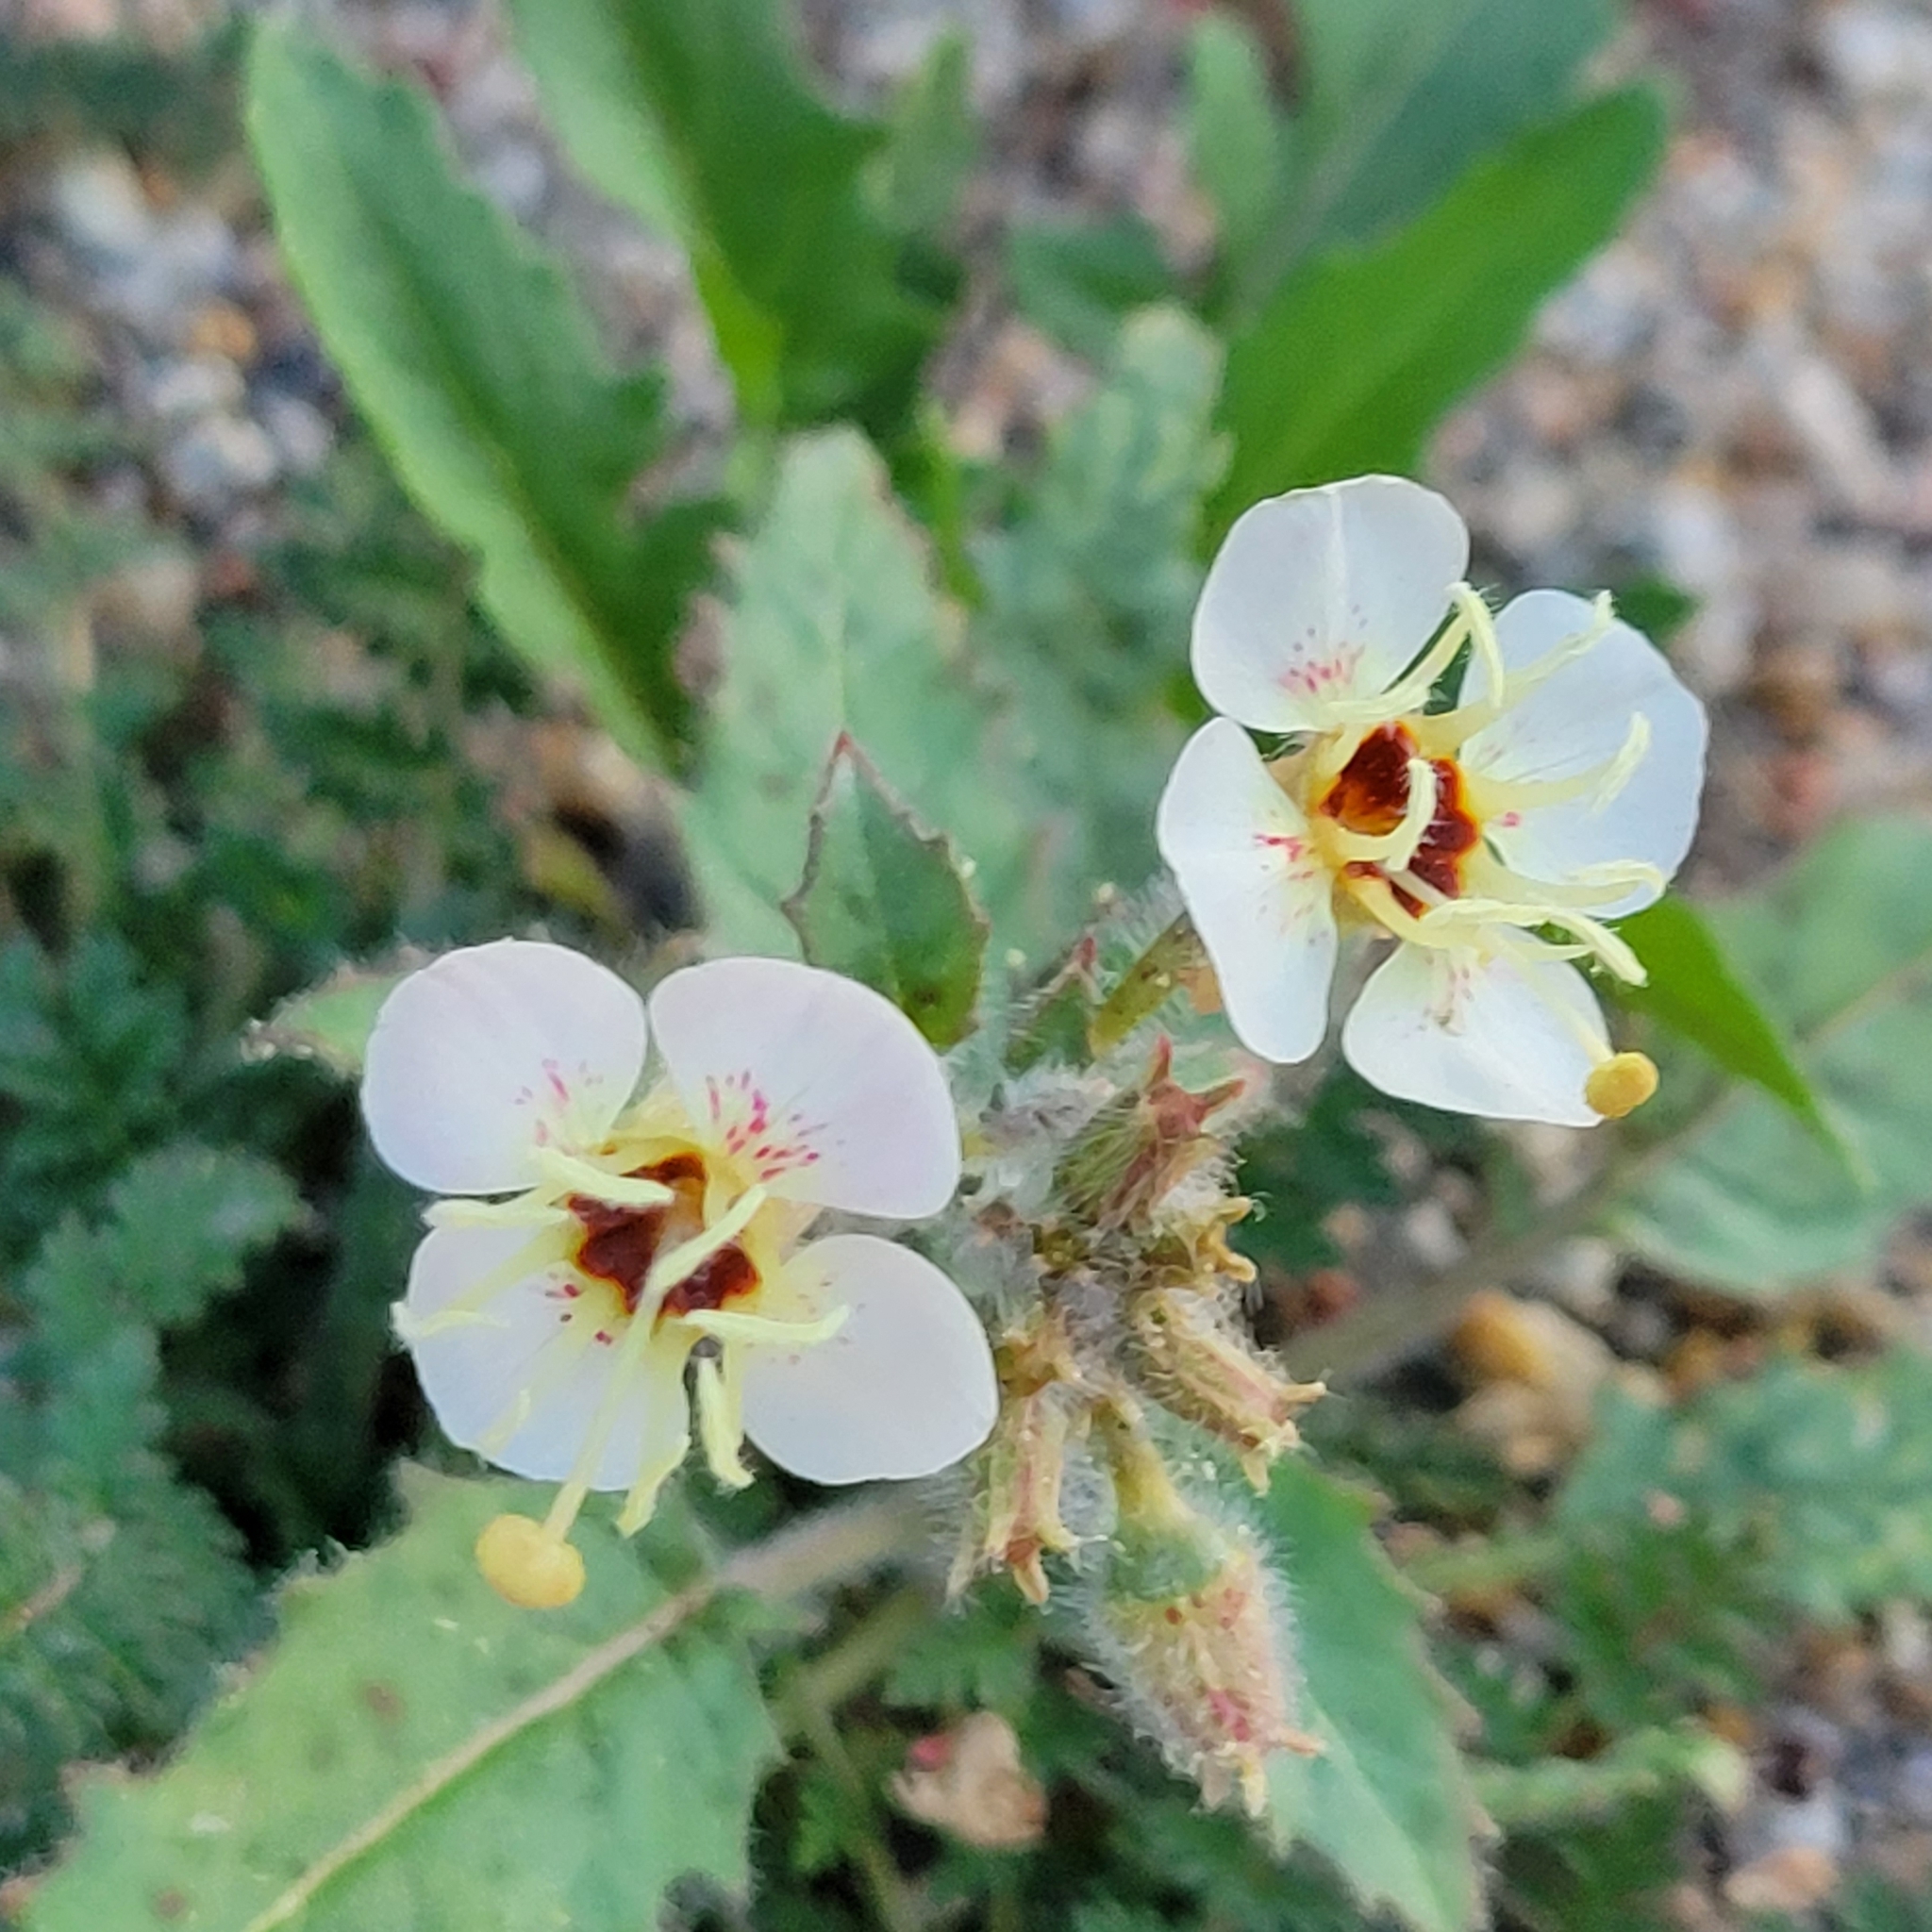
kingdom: Plantae
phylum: Tracheophyta
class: Magnoliopsida
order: Myrtales
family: Onagraceae
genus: Chylismia
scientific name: Chylismia claviformis
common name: Browneyes
